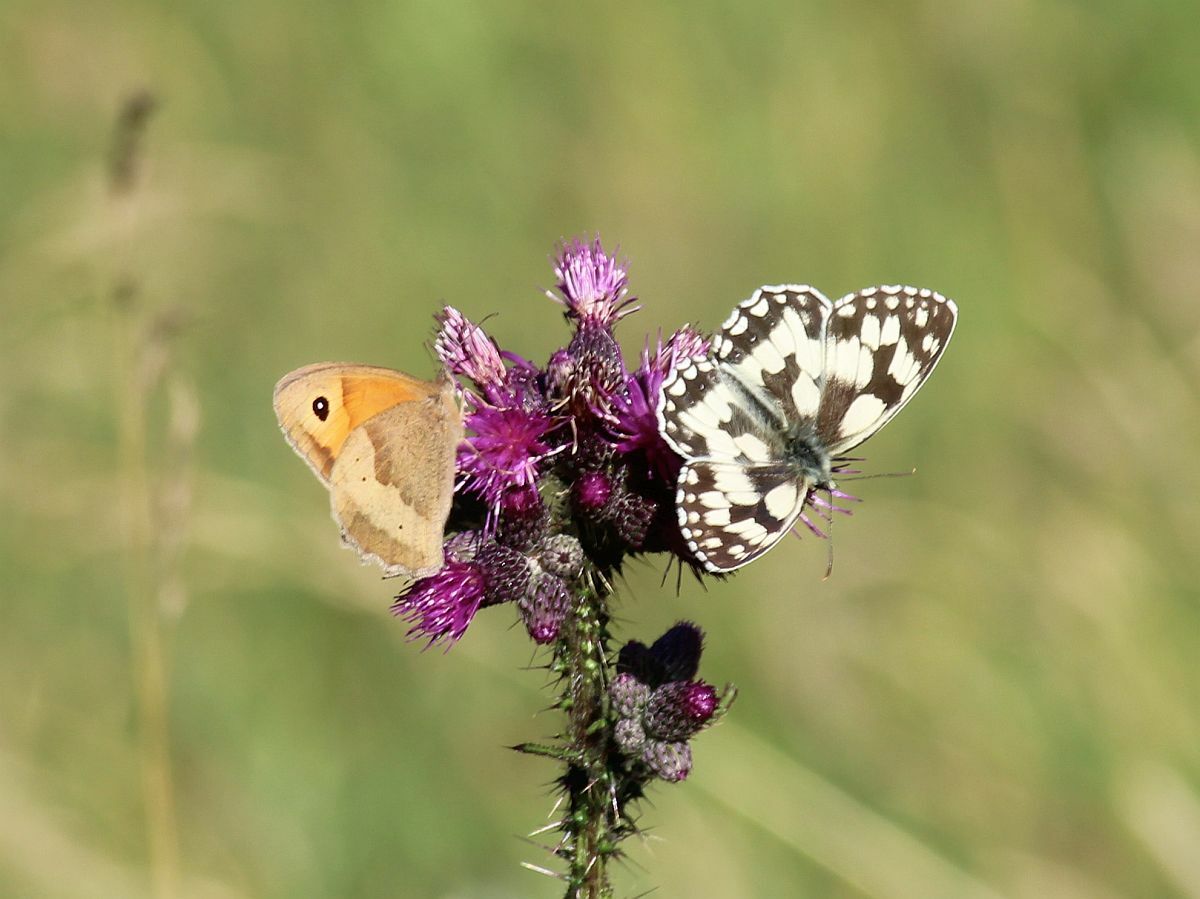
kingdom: Animalia
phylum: Arthropoda
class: Insecta
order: Lepidoptera
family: Nymphalidae
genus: Melanargia
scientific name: Melanargia galathea
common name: Marbled white
